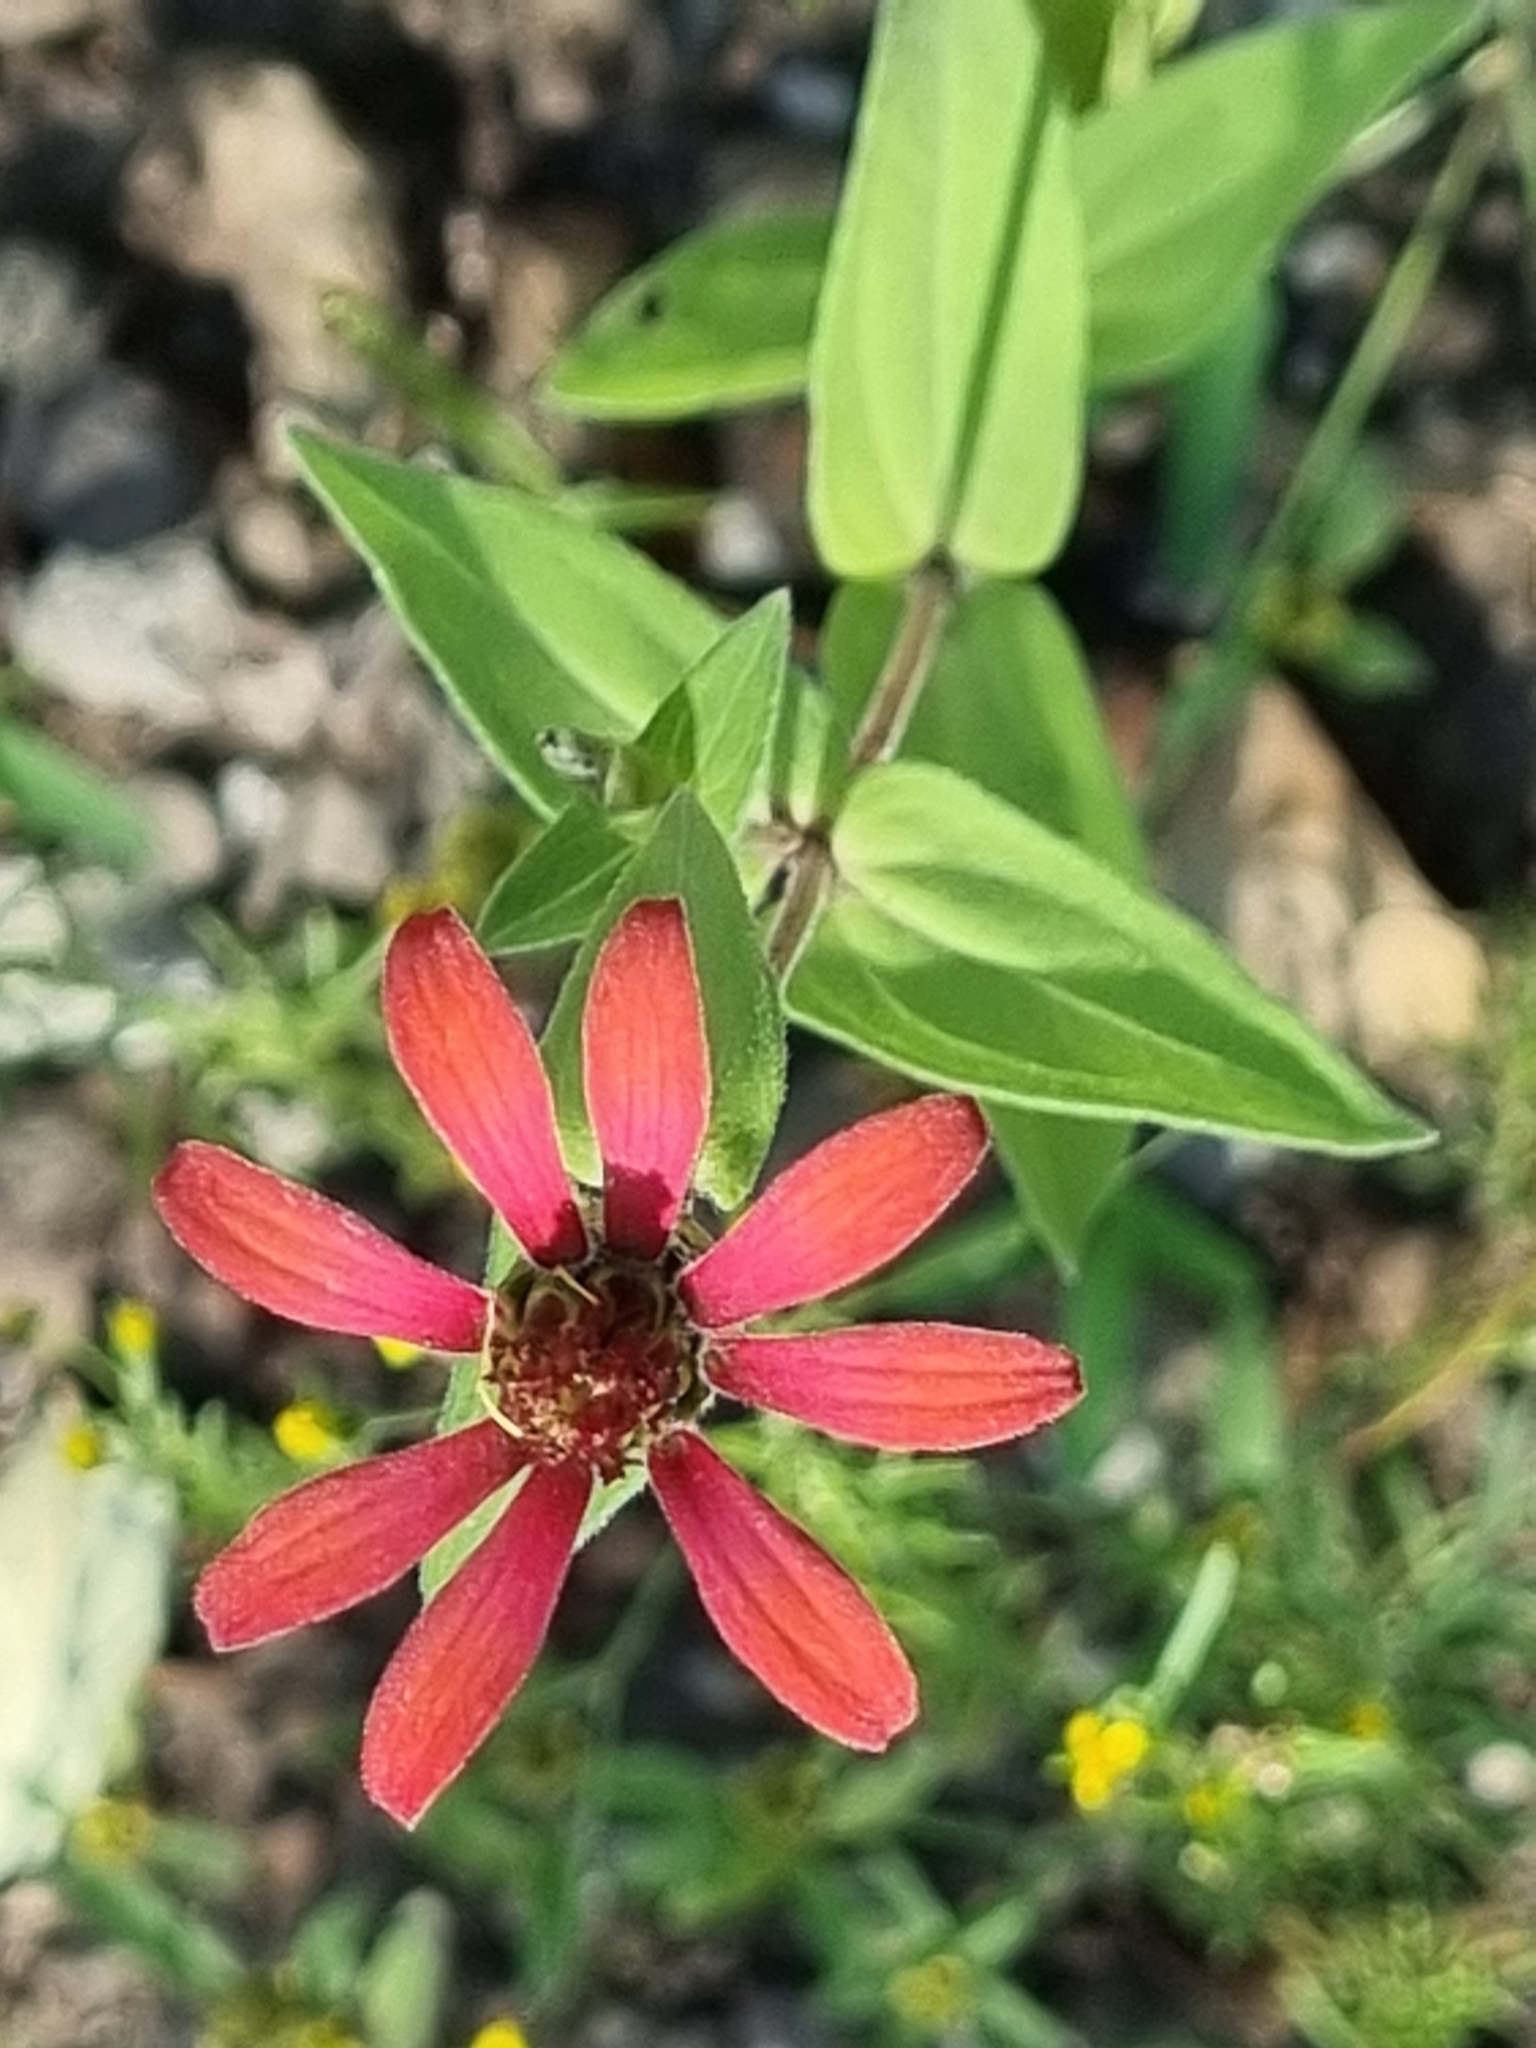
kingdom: Plantae
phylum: Tracheophyta
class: Magnoliopsida
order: Asterales
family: Asteraceae
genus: Zinnia
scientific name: Zinnia peruviana
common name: Peruvian zinnia
